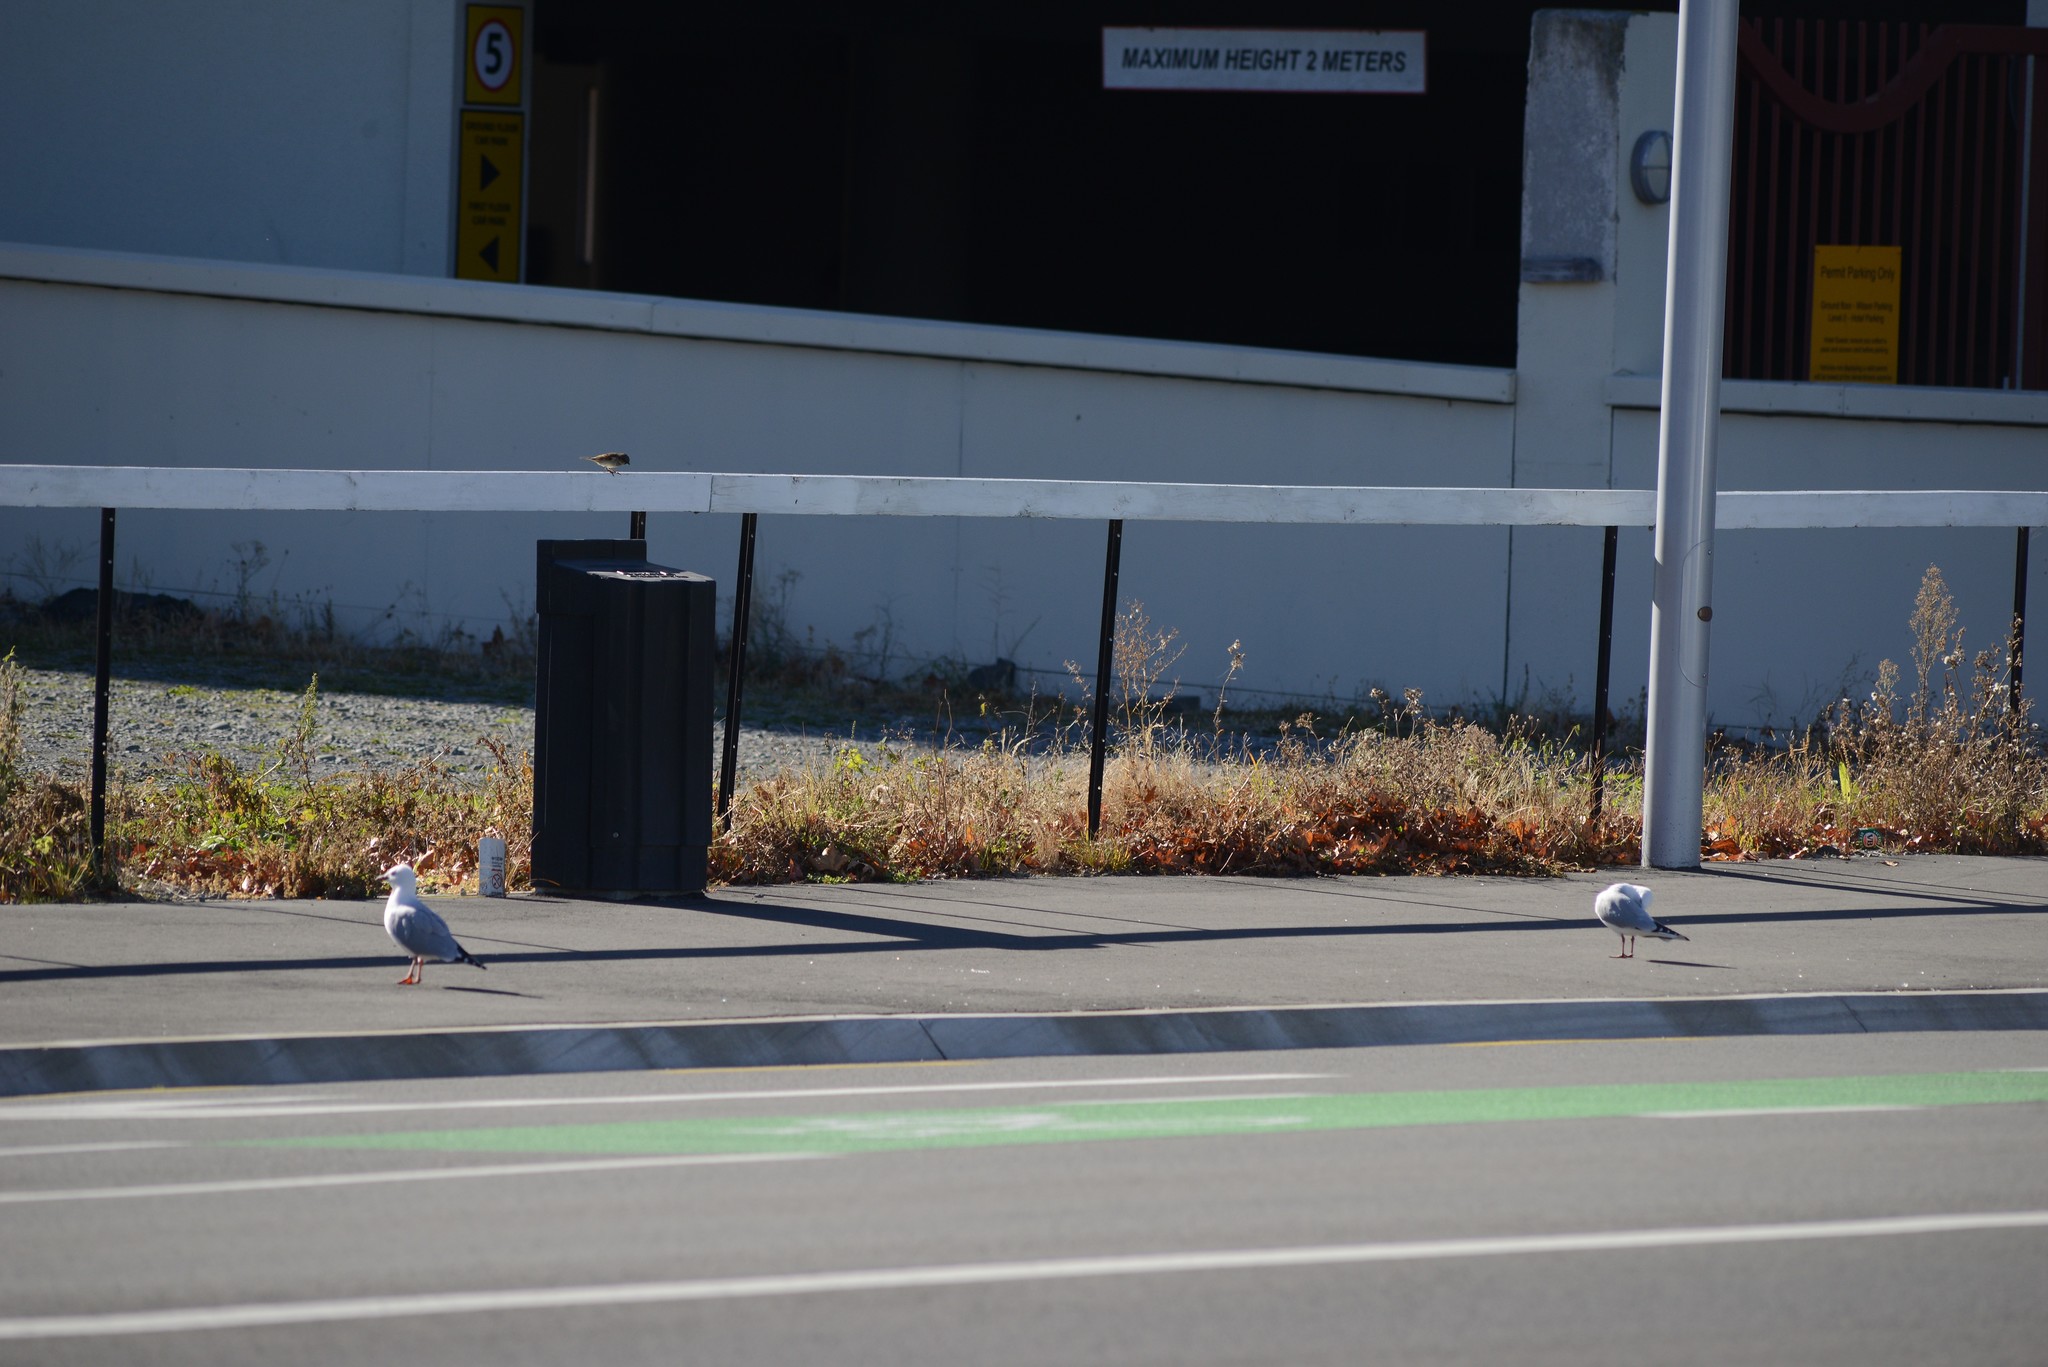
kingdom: Animalia
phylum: Chordata
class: Aves
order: Charadriiformes
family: Laridae
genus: Chroicocephalus
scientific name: Chroicocephalus novaehollandiae
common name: Silver gull
